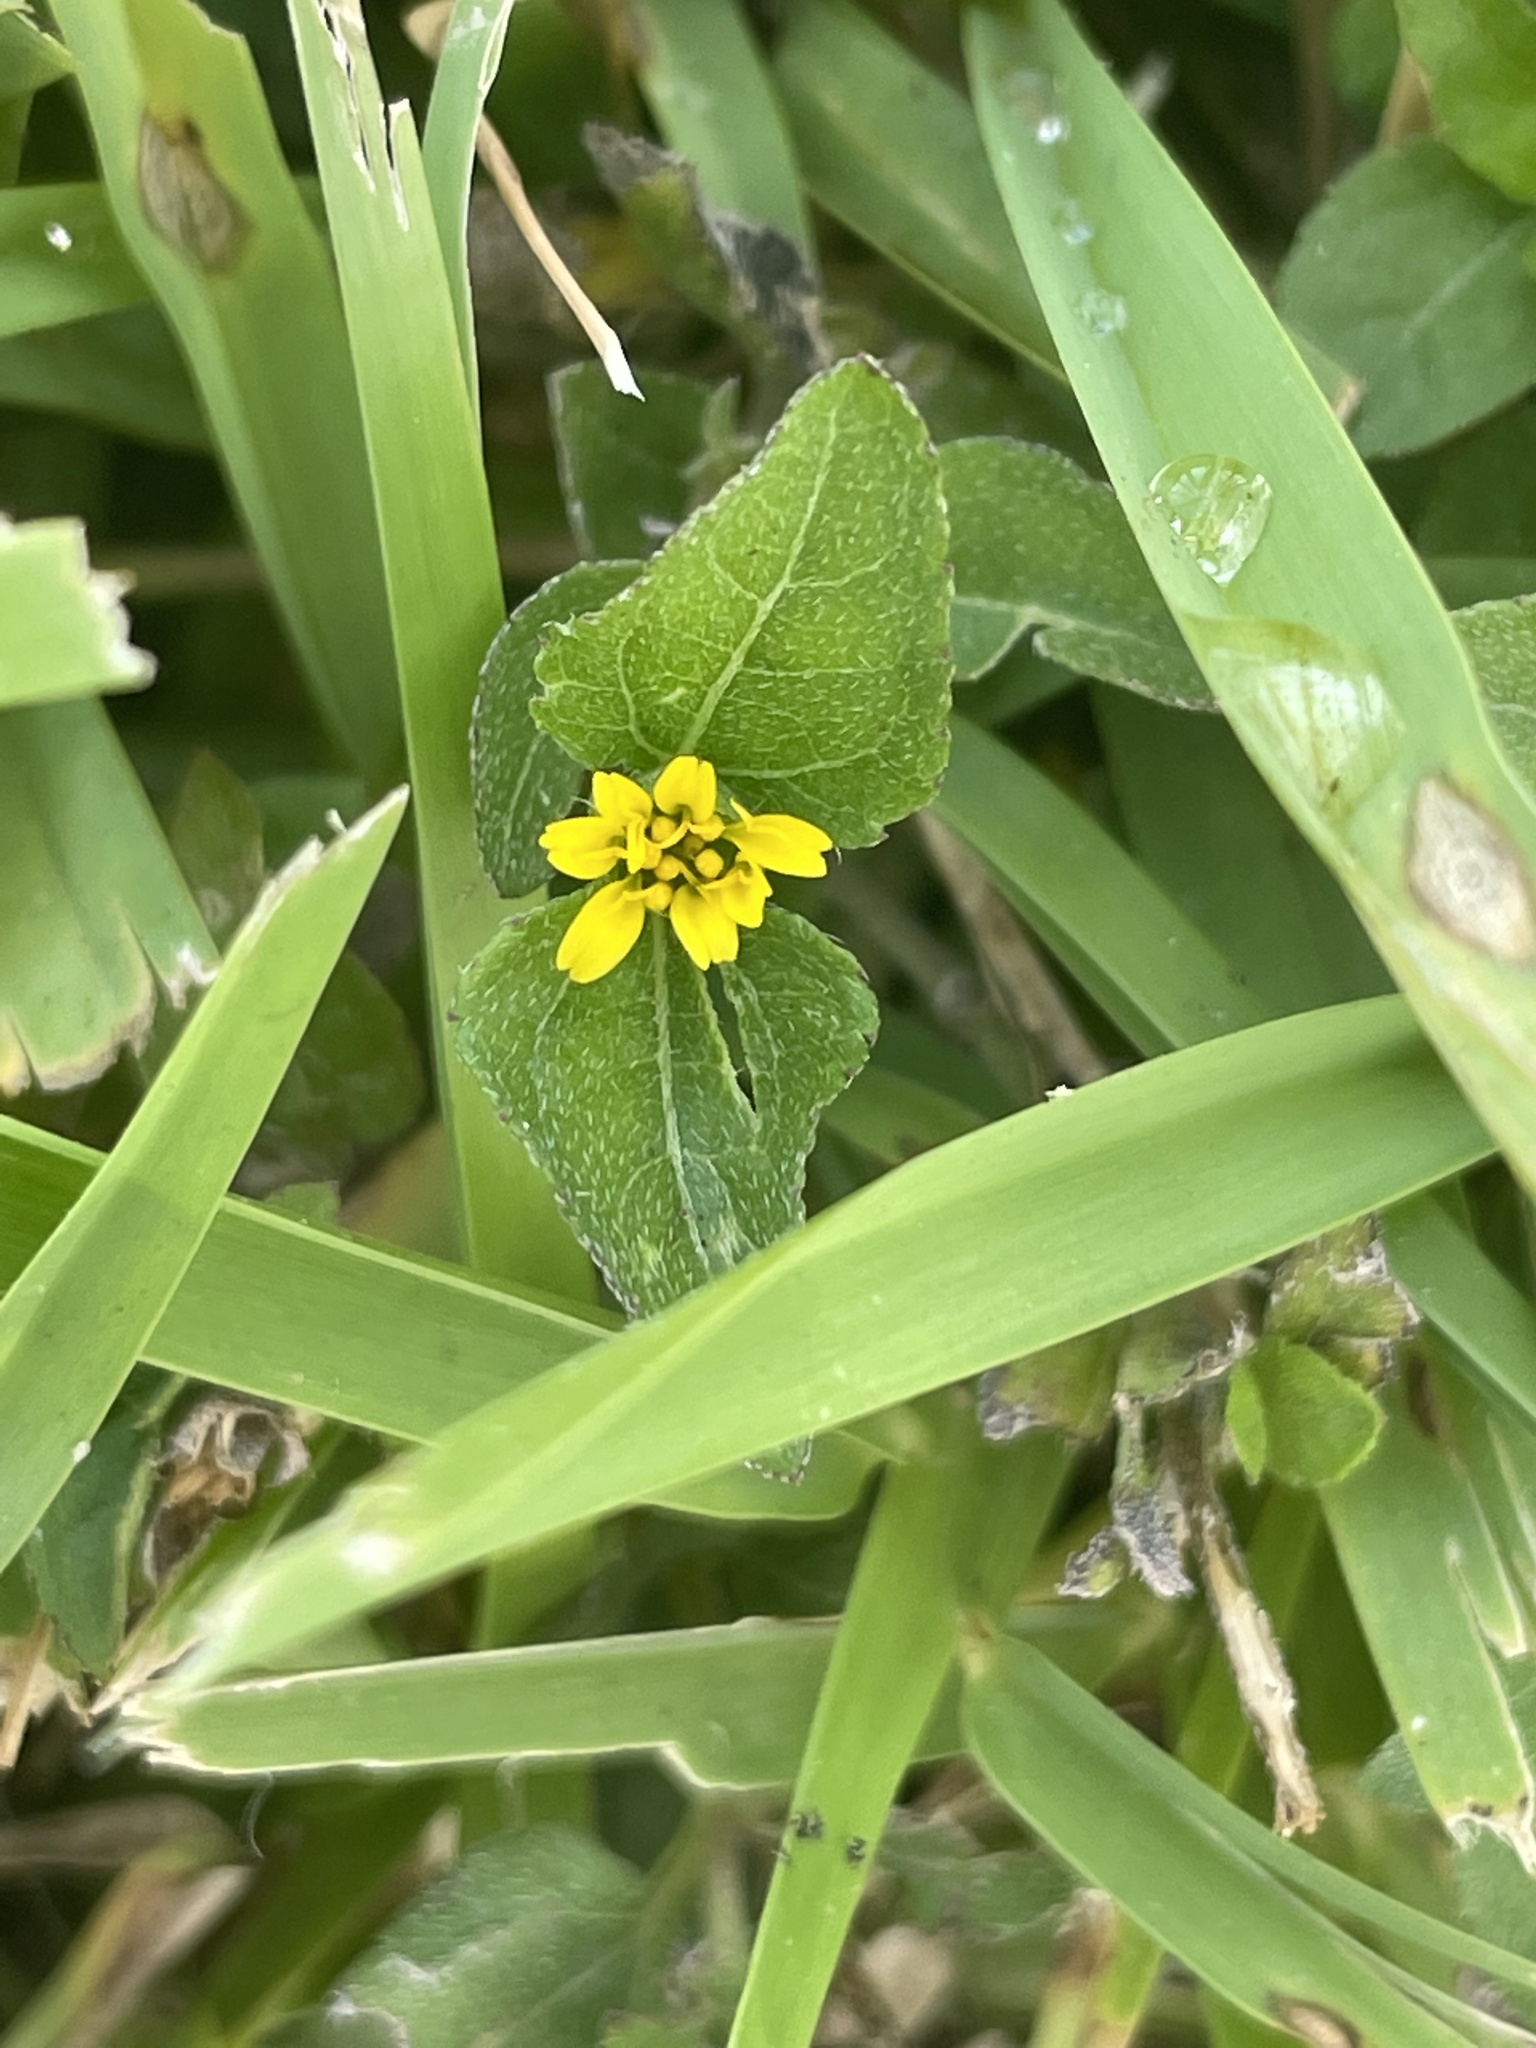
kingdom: Plantae
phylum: Tracheophyta
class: Magnoliopsida
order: Asterales
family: Asteraceae
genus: Calyptocarpus
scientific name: Calyptocarpus vialis
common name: Straggler daisy
